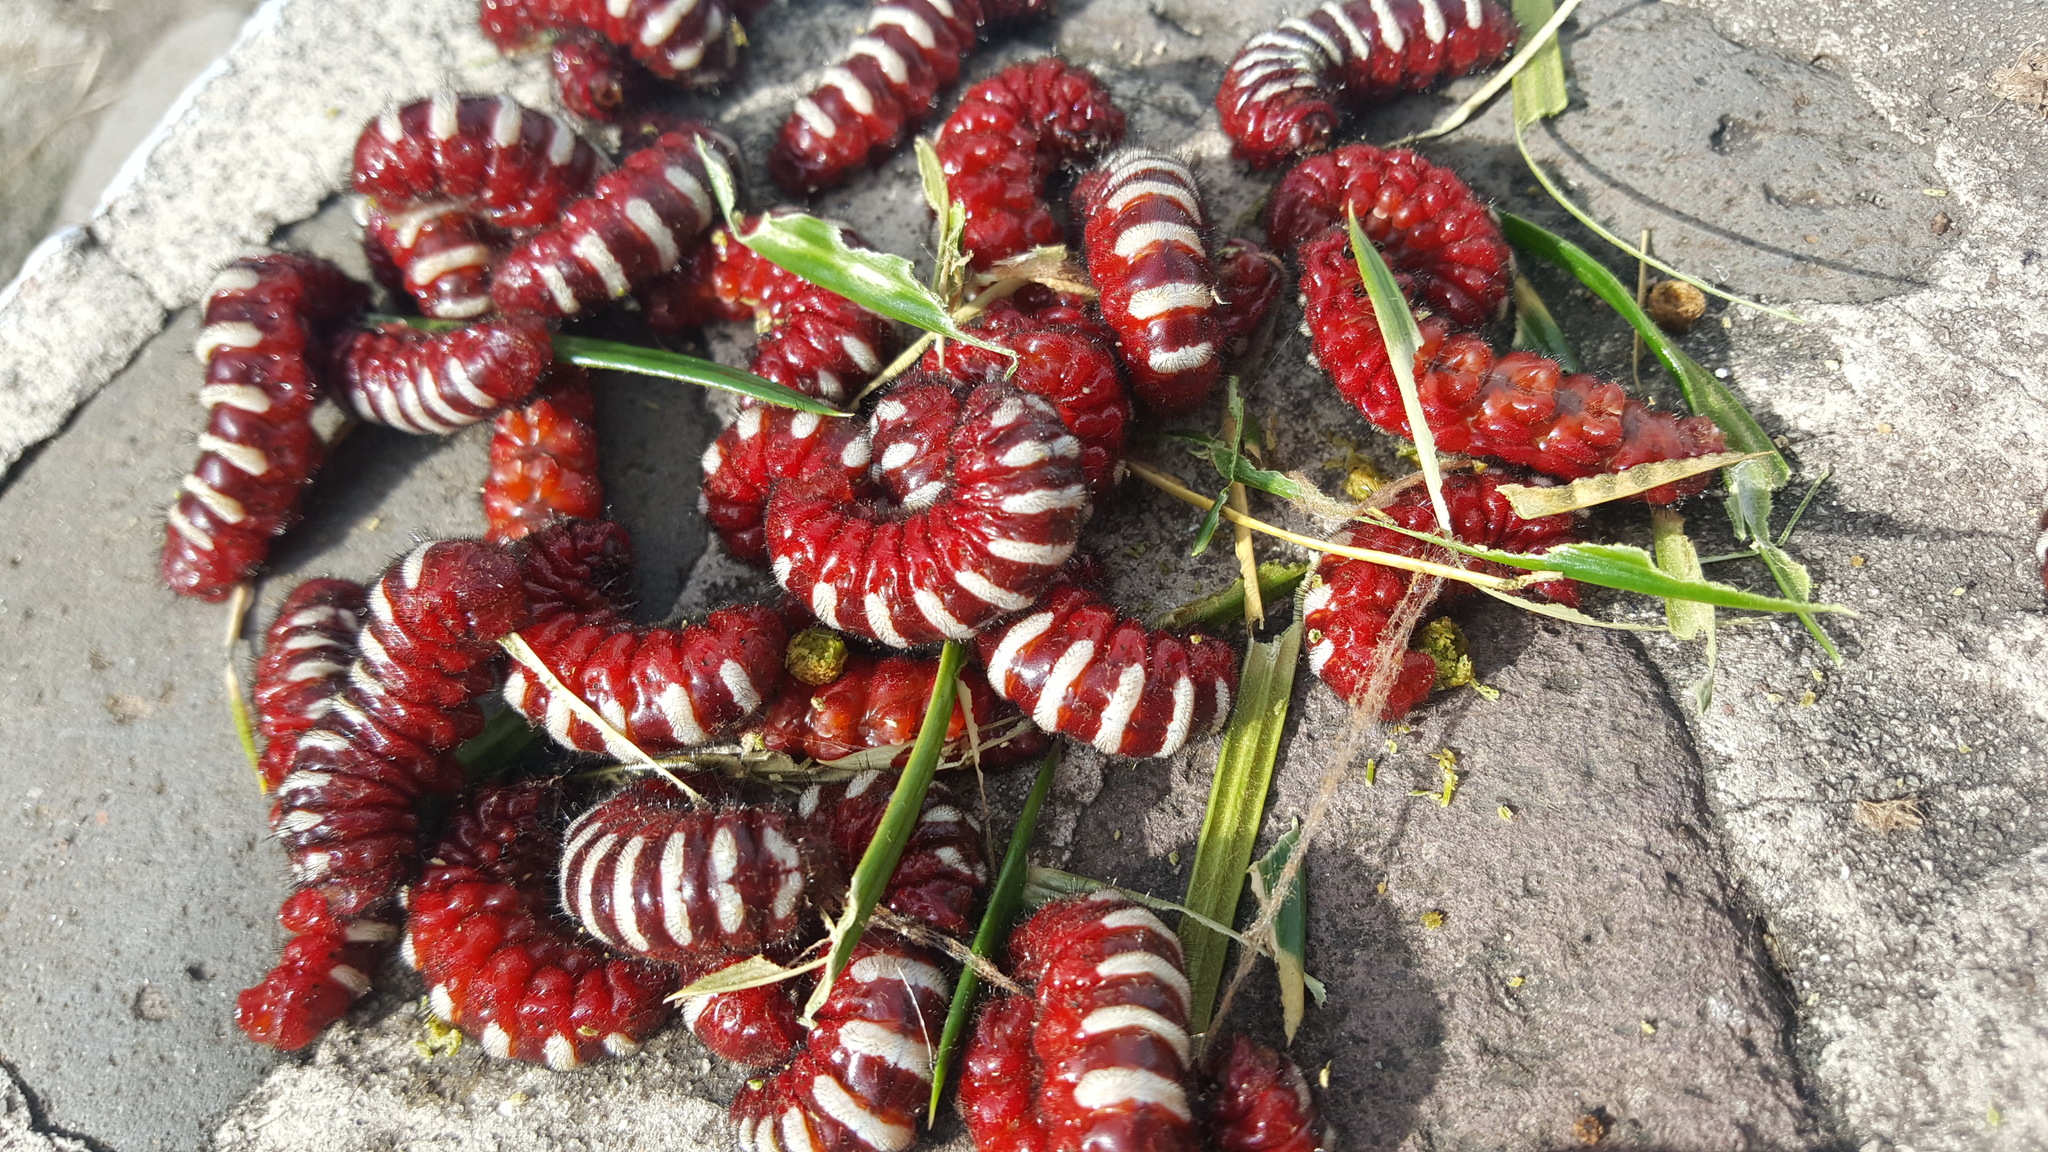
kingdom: Animalia
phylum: Arthropoda
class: Insecta
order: Lepidoptera
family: Lycaenidae
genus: Eumaeus
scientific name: Eumaeus childrenae
